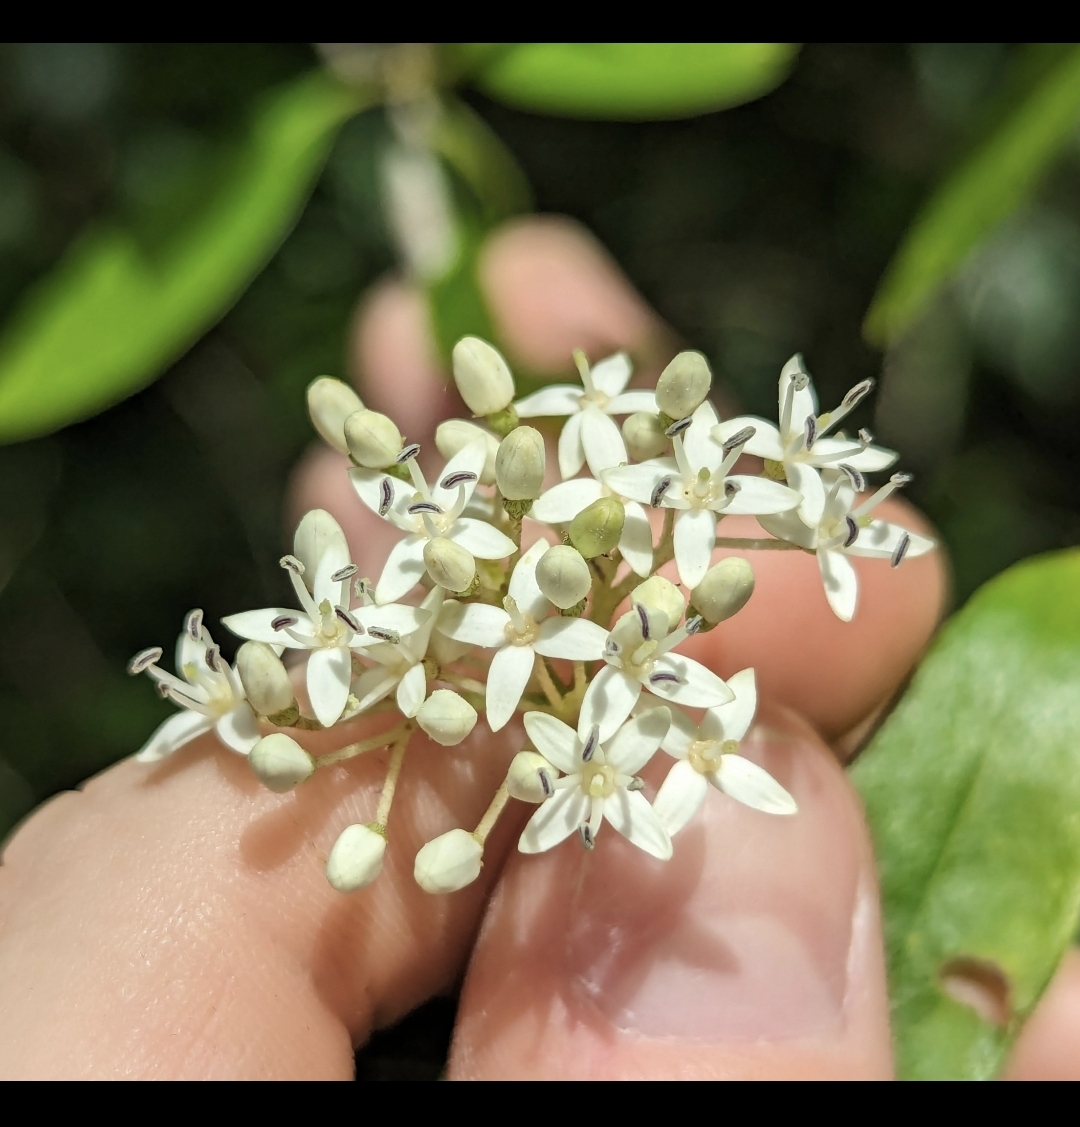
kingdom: Plantae
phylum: Tracheophyta
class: Magnoliopsida
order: Cornales
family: Cornaceae
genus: Cornus
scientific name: Cornus foemina
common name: Swamp dogwood
